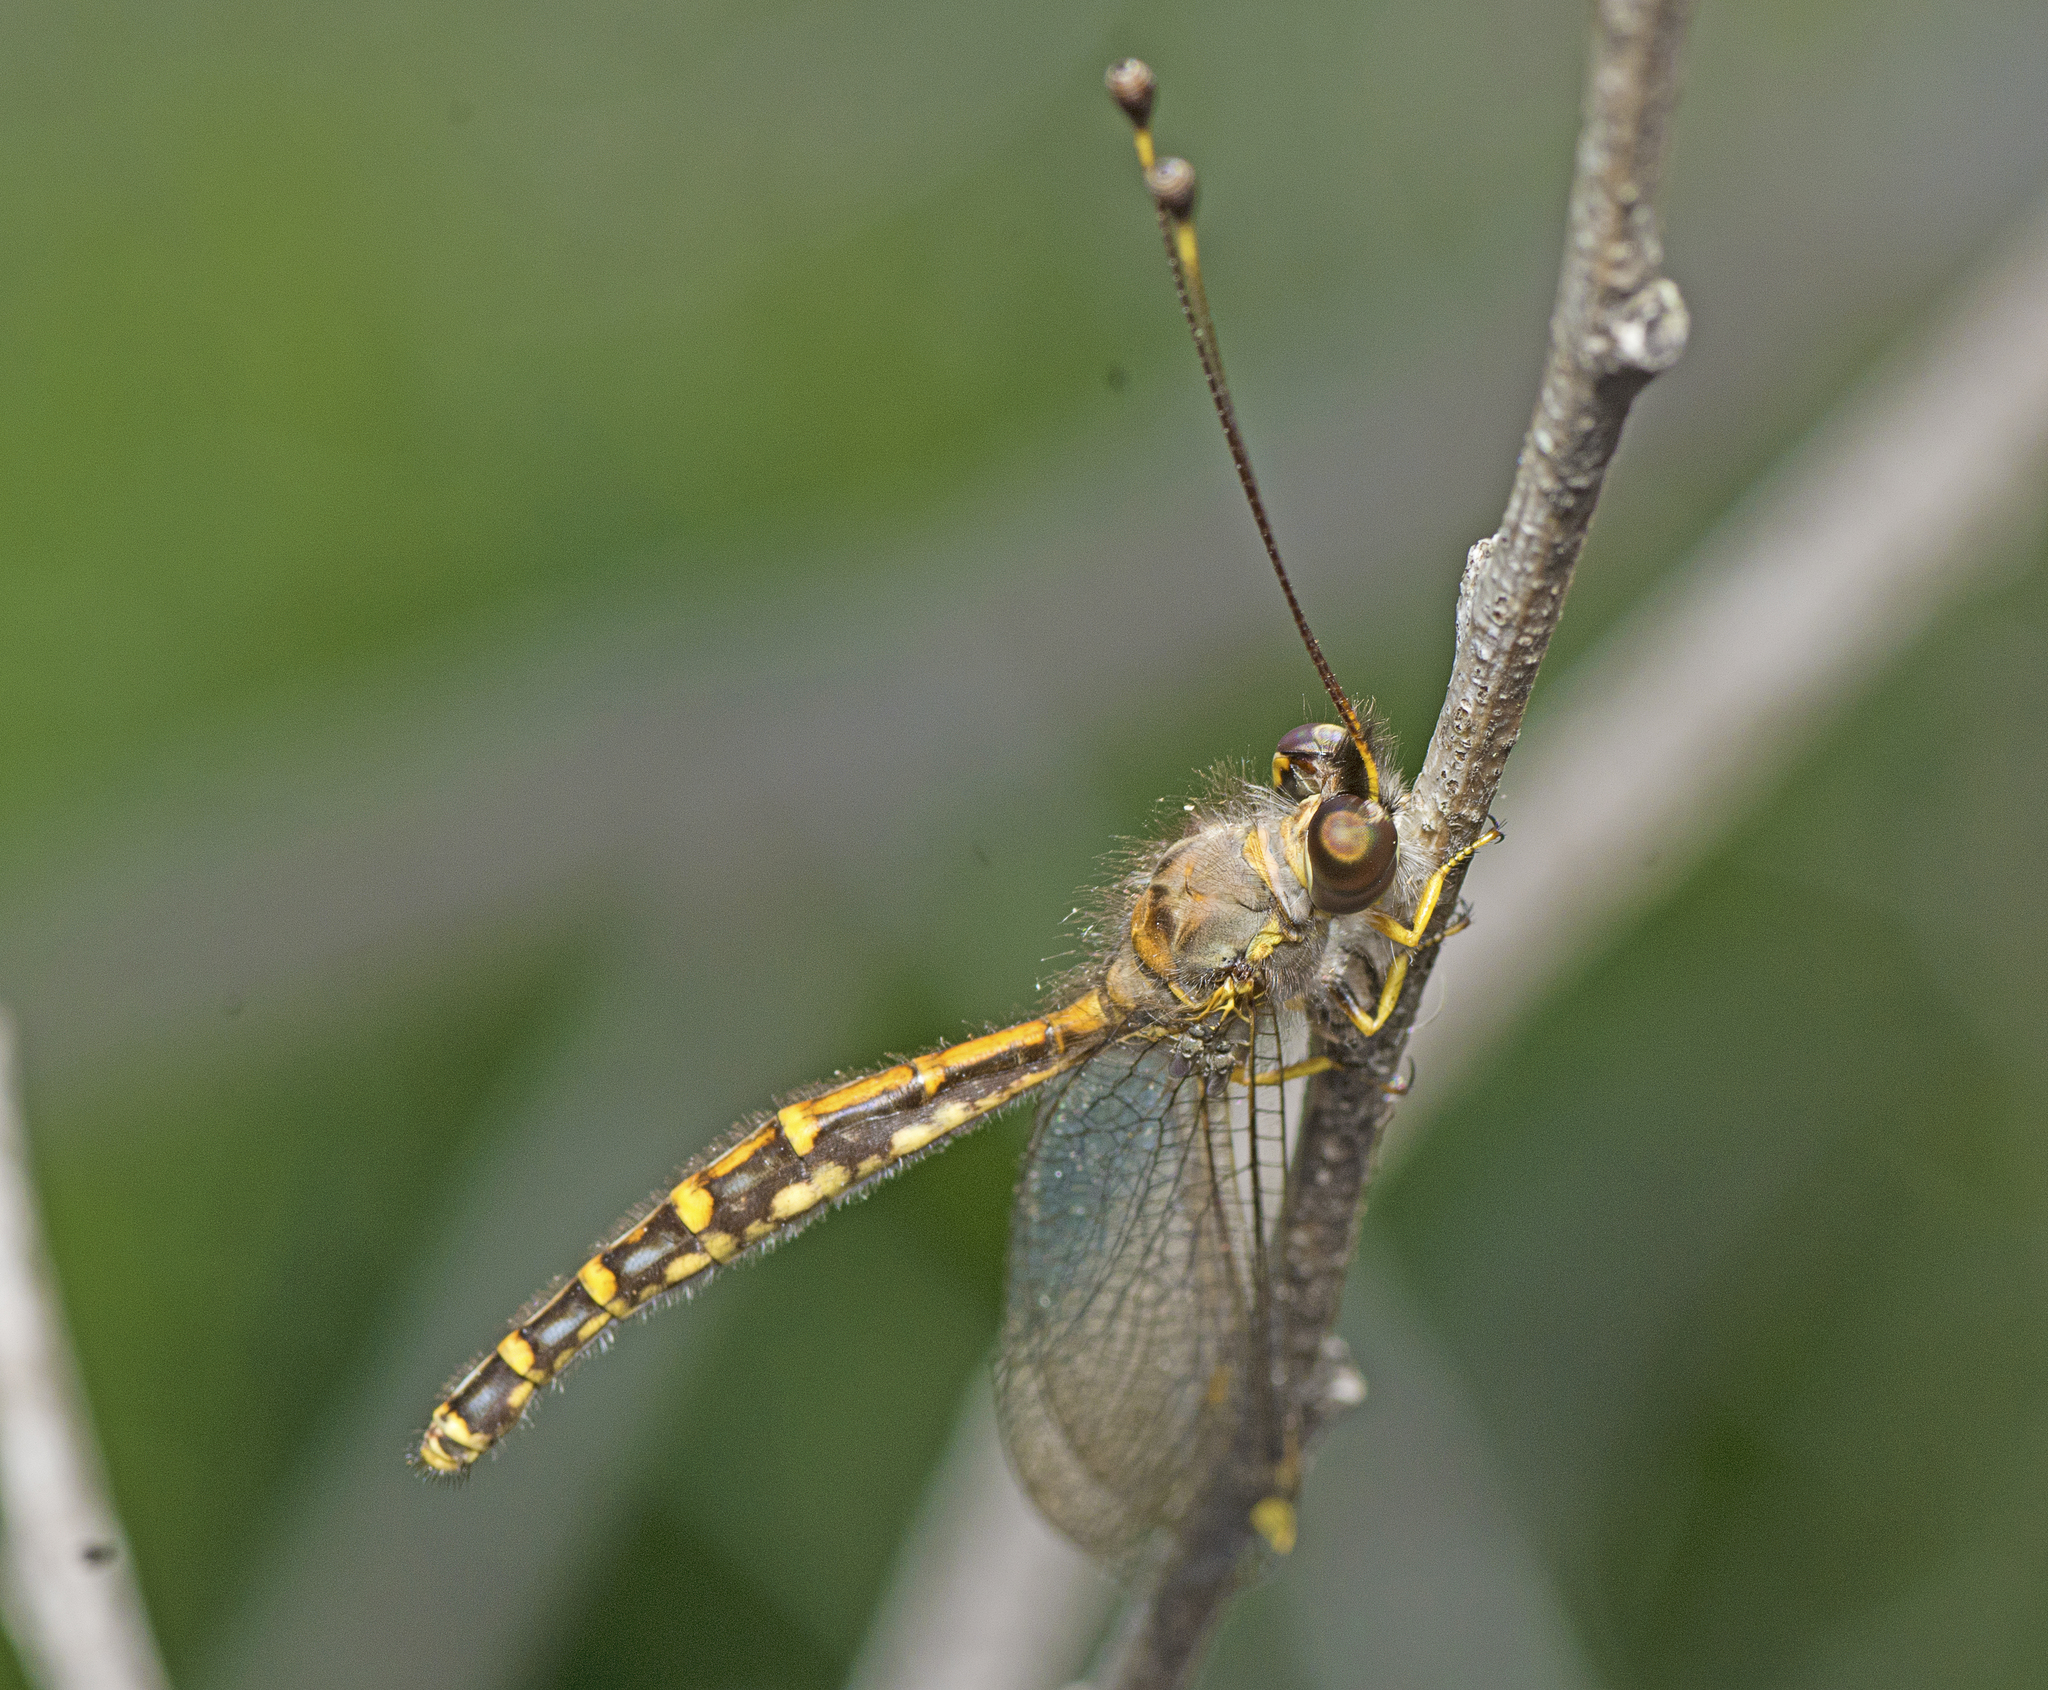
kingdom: Animalia
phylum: Arthropoda
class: Insecta
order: Neuroptera
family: Ascalaphidae
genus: Suhpalacsa
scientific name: Suhpalacsa flavipes
